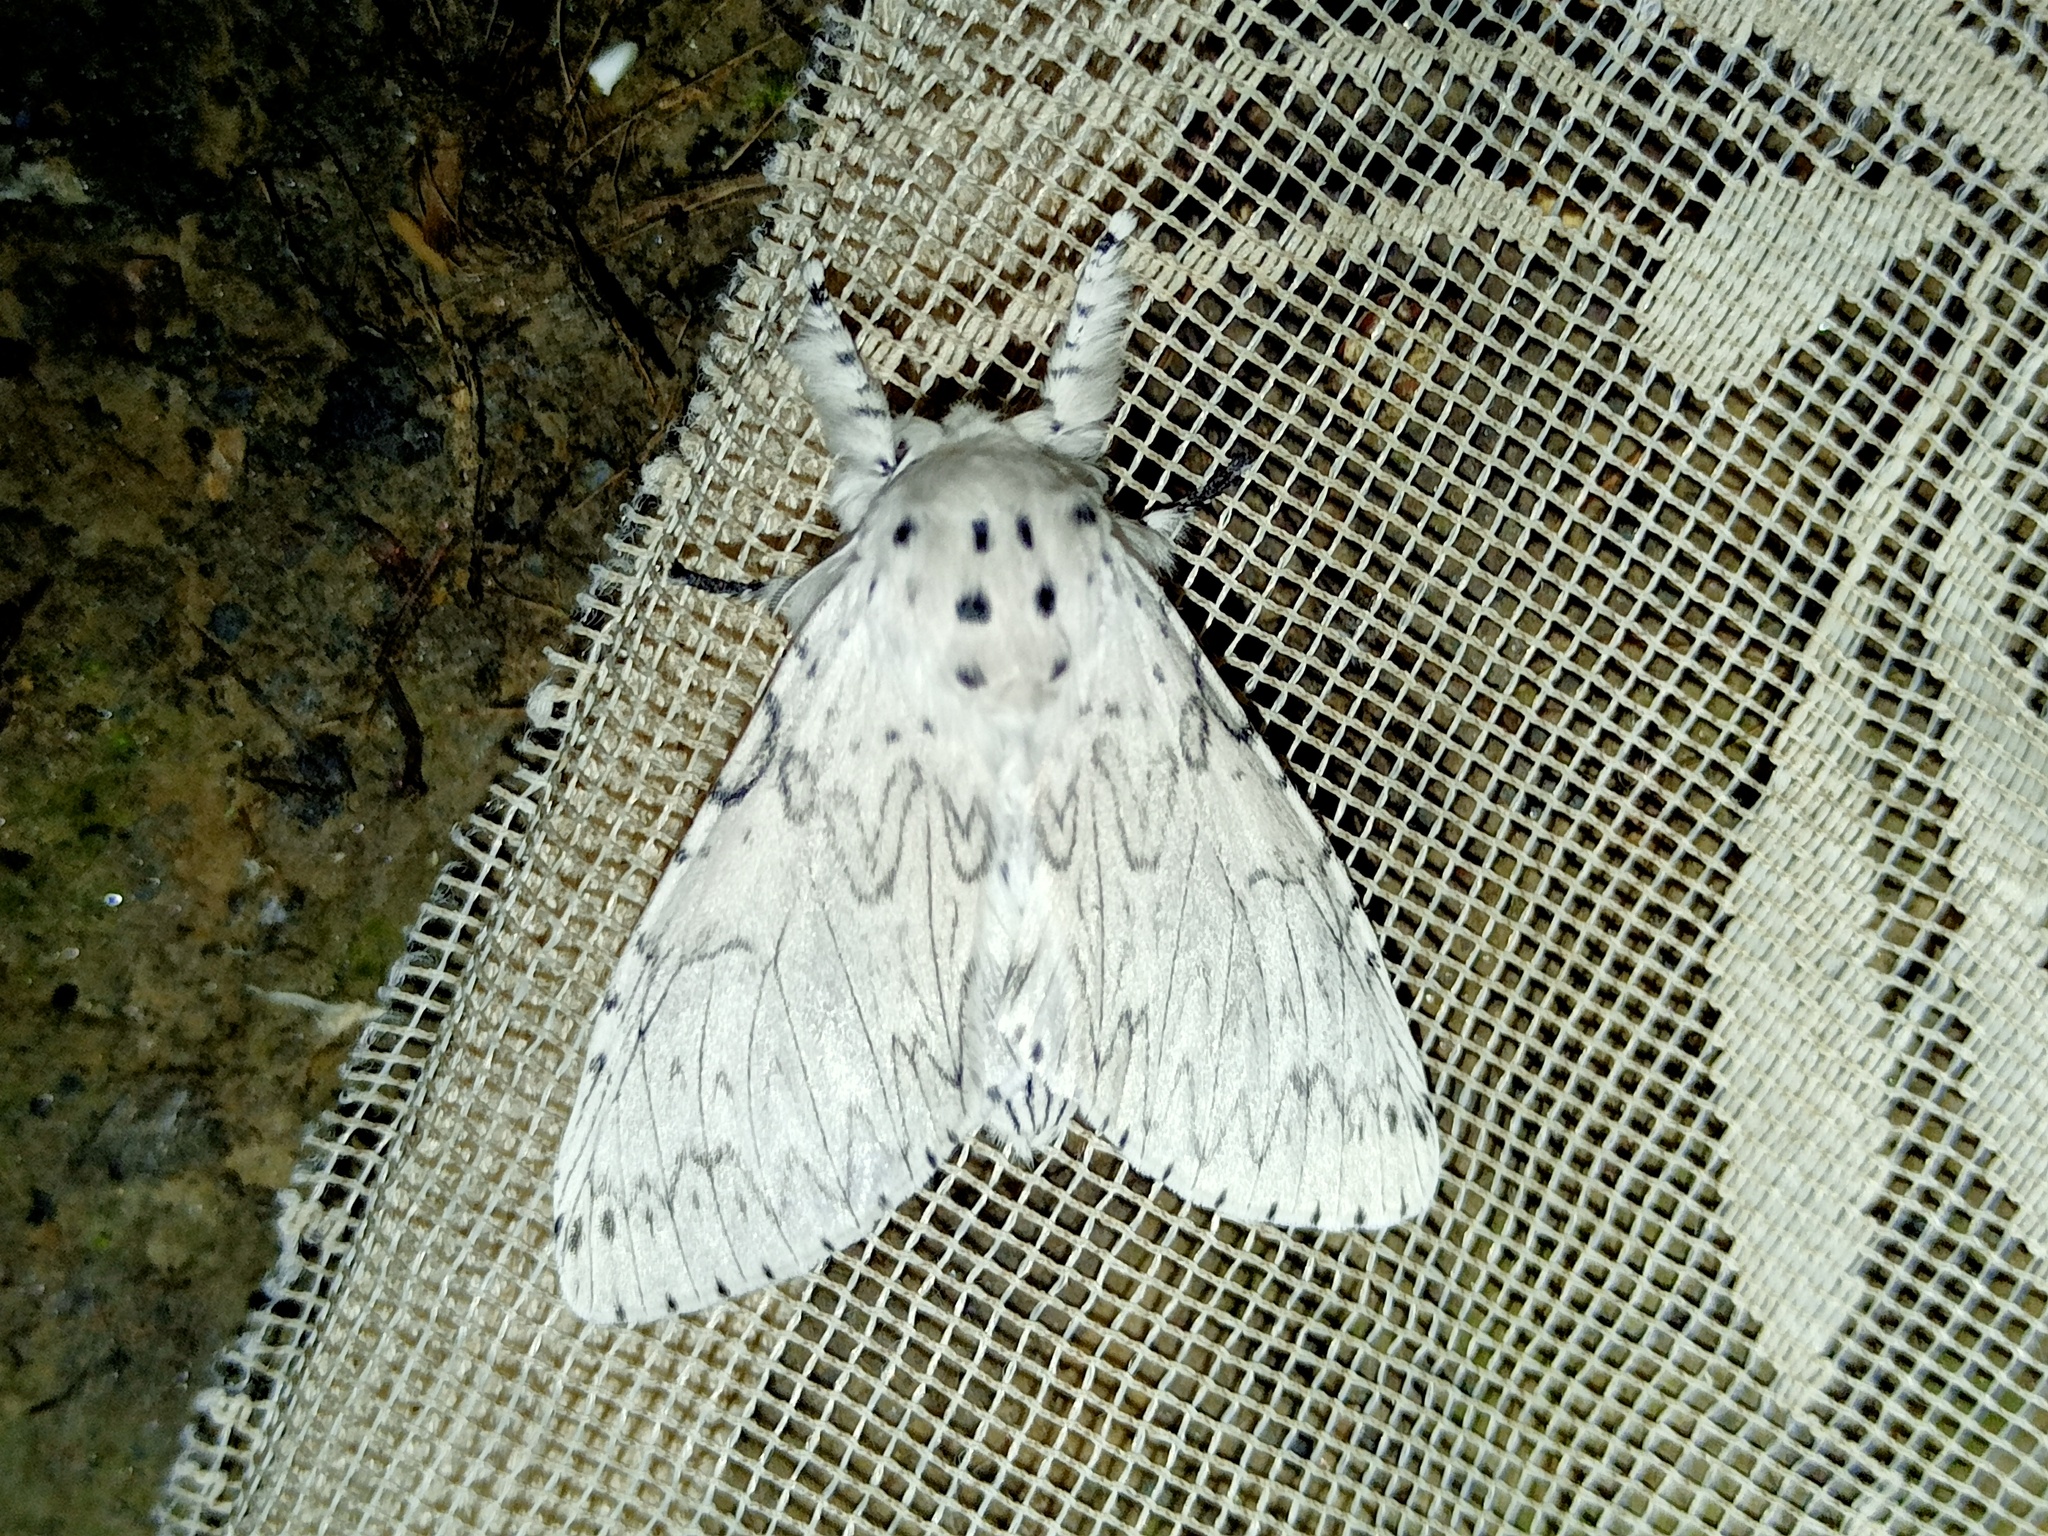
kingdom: Animalia
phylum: Arthropoda
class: Insecta
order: Lepidoptera
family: Notodontidae
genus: Cerura
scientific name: Cerura erminea
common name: Lesser puss moth
